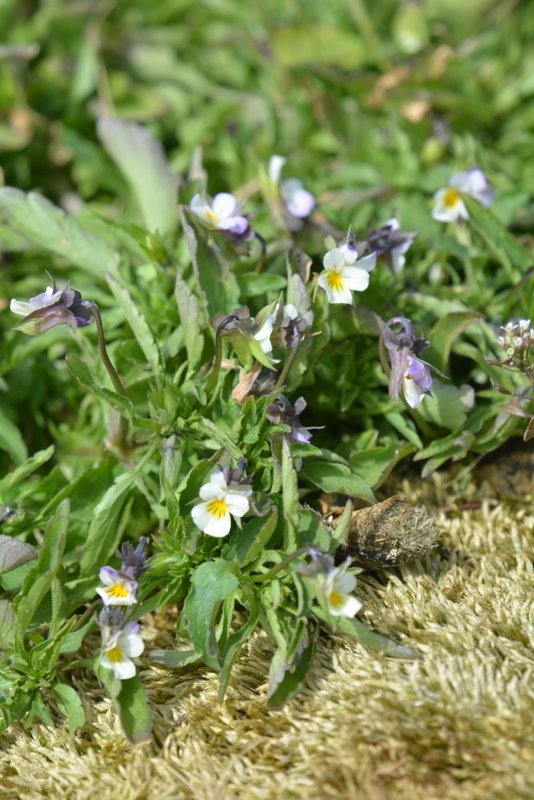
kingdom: Plantae
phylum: Tracheophyta
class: Magnoliopsida
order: Malpighiales
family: Violaceae
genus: Viola
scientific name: Viola arvensis
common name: Field pansy
